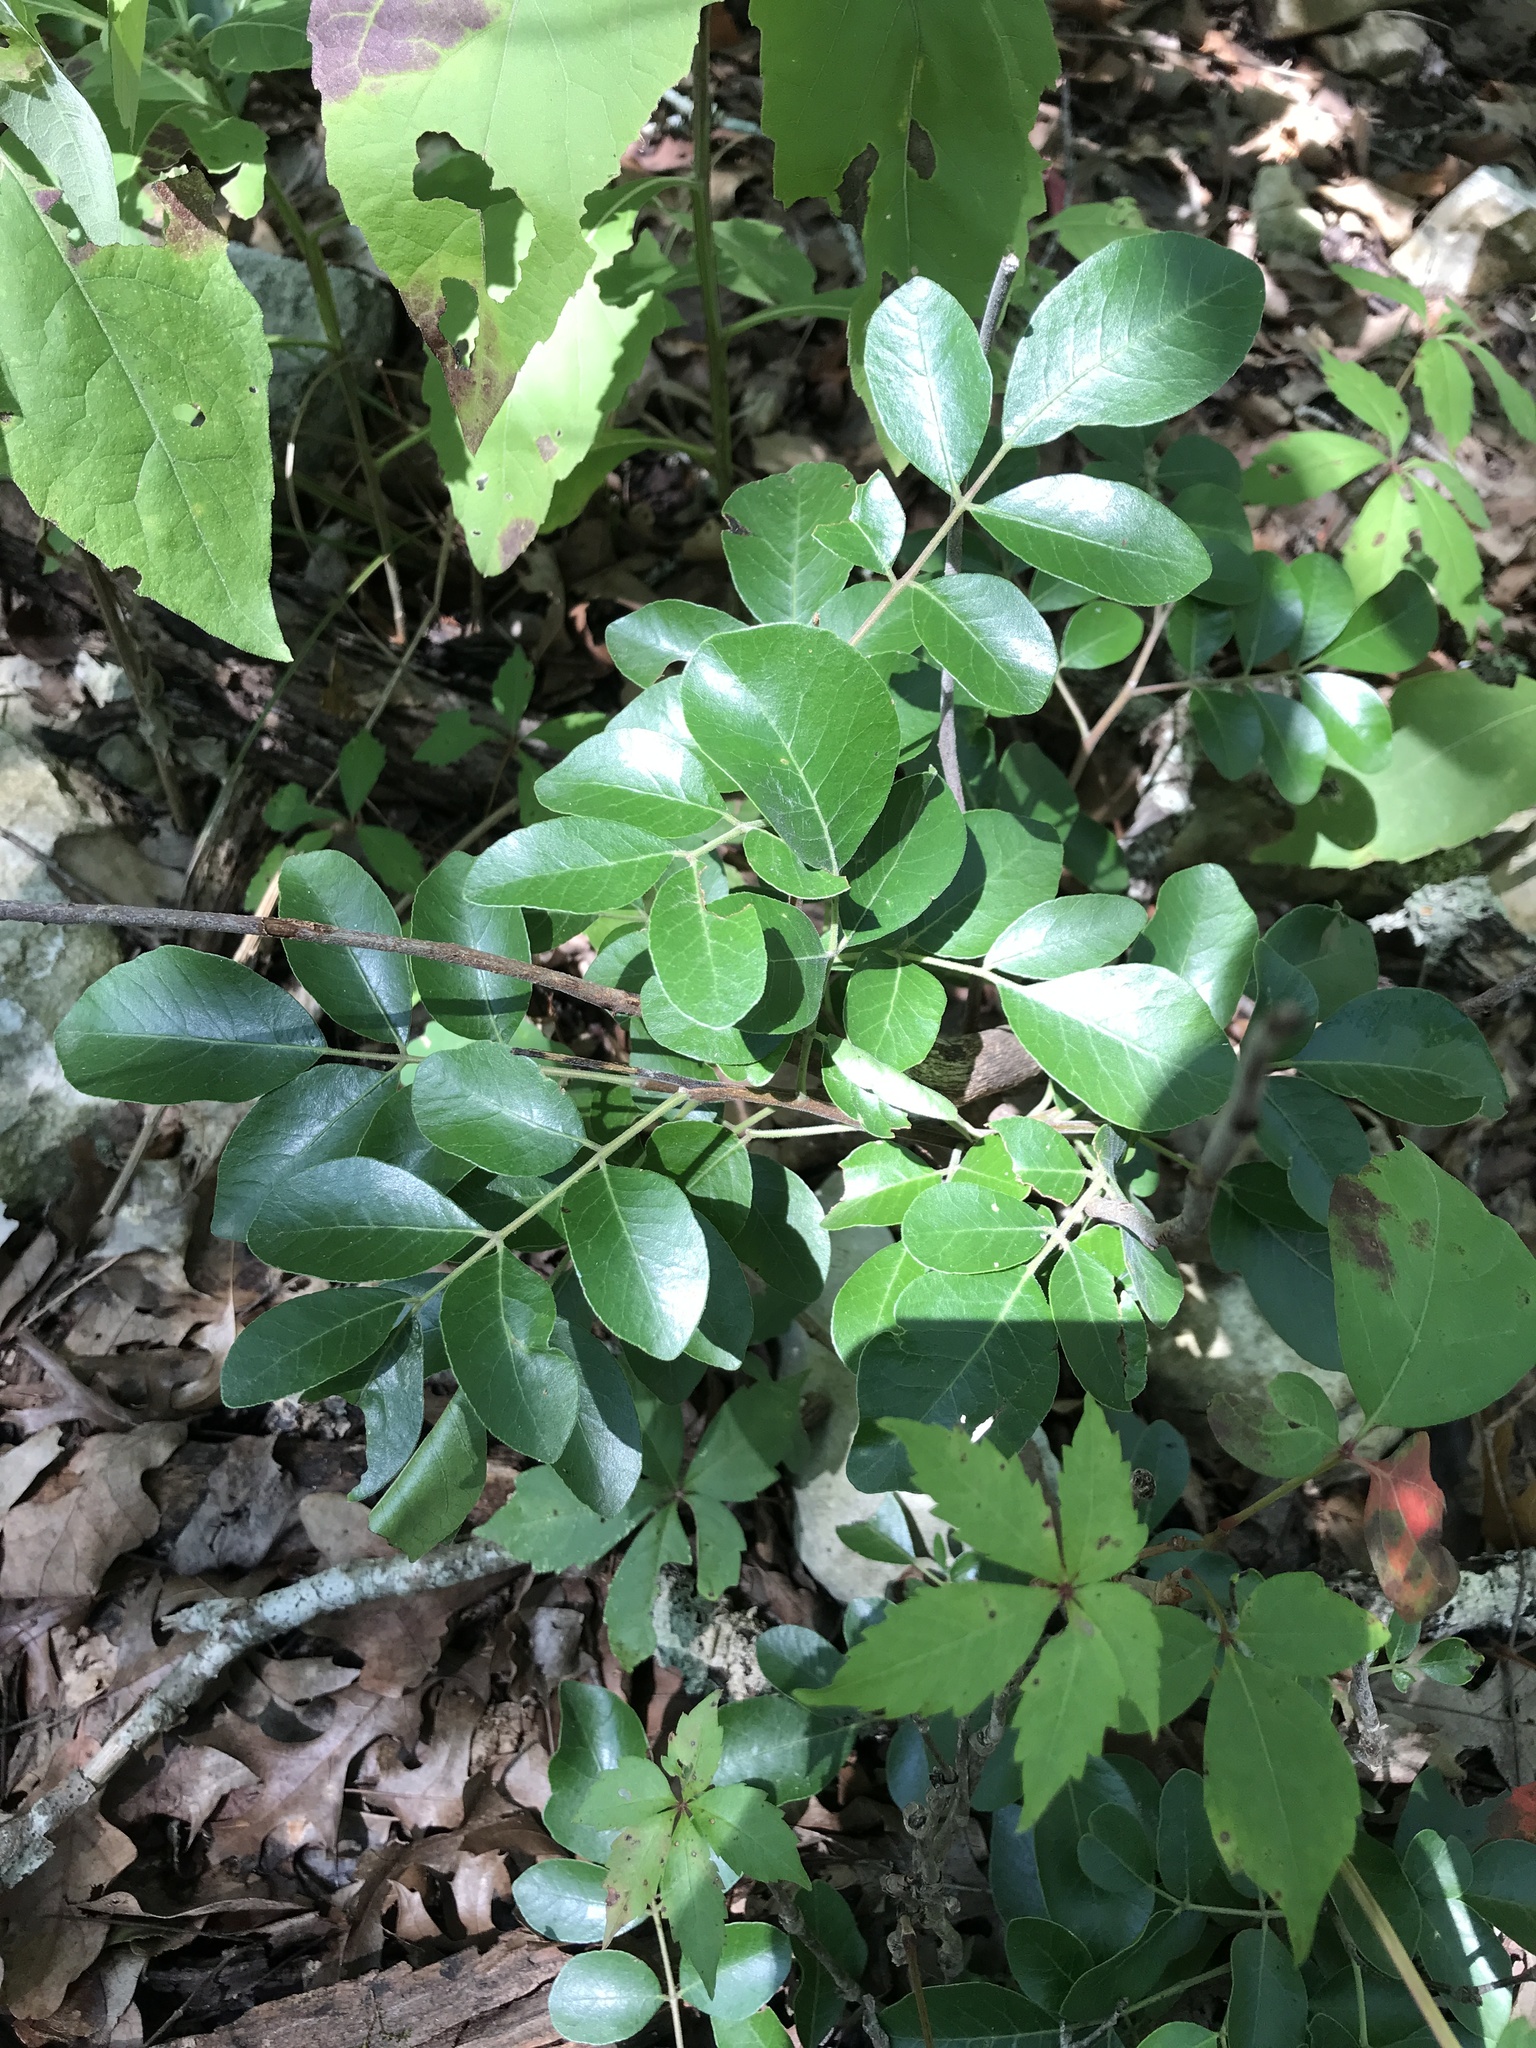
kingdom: Plantae
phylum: Tracheophyta
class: Magnoliopsida
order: Sapindales
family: Anacardiaceae
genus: Rhus
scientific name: Rhus virens
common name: Evergreen sumac
